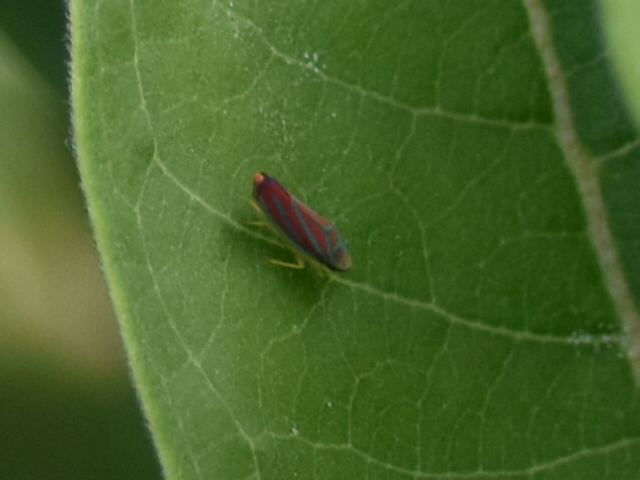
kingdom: Animalia
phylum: Arthropoda
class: Insecta
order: Hemiptera
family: Cicadellidae
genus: Graphocephala
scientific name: Graphocephala coccinea
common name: Candy-striped leafhopper
